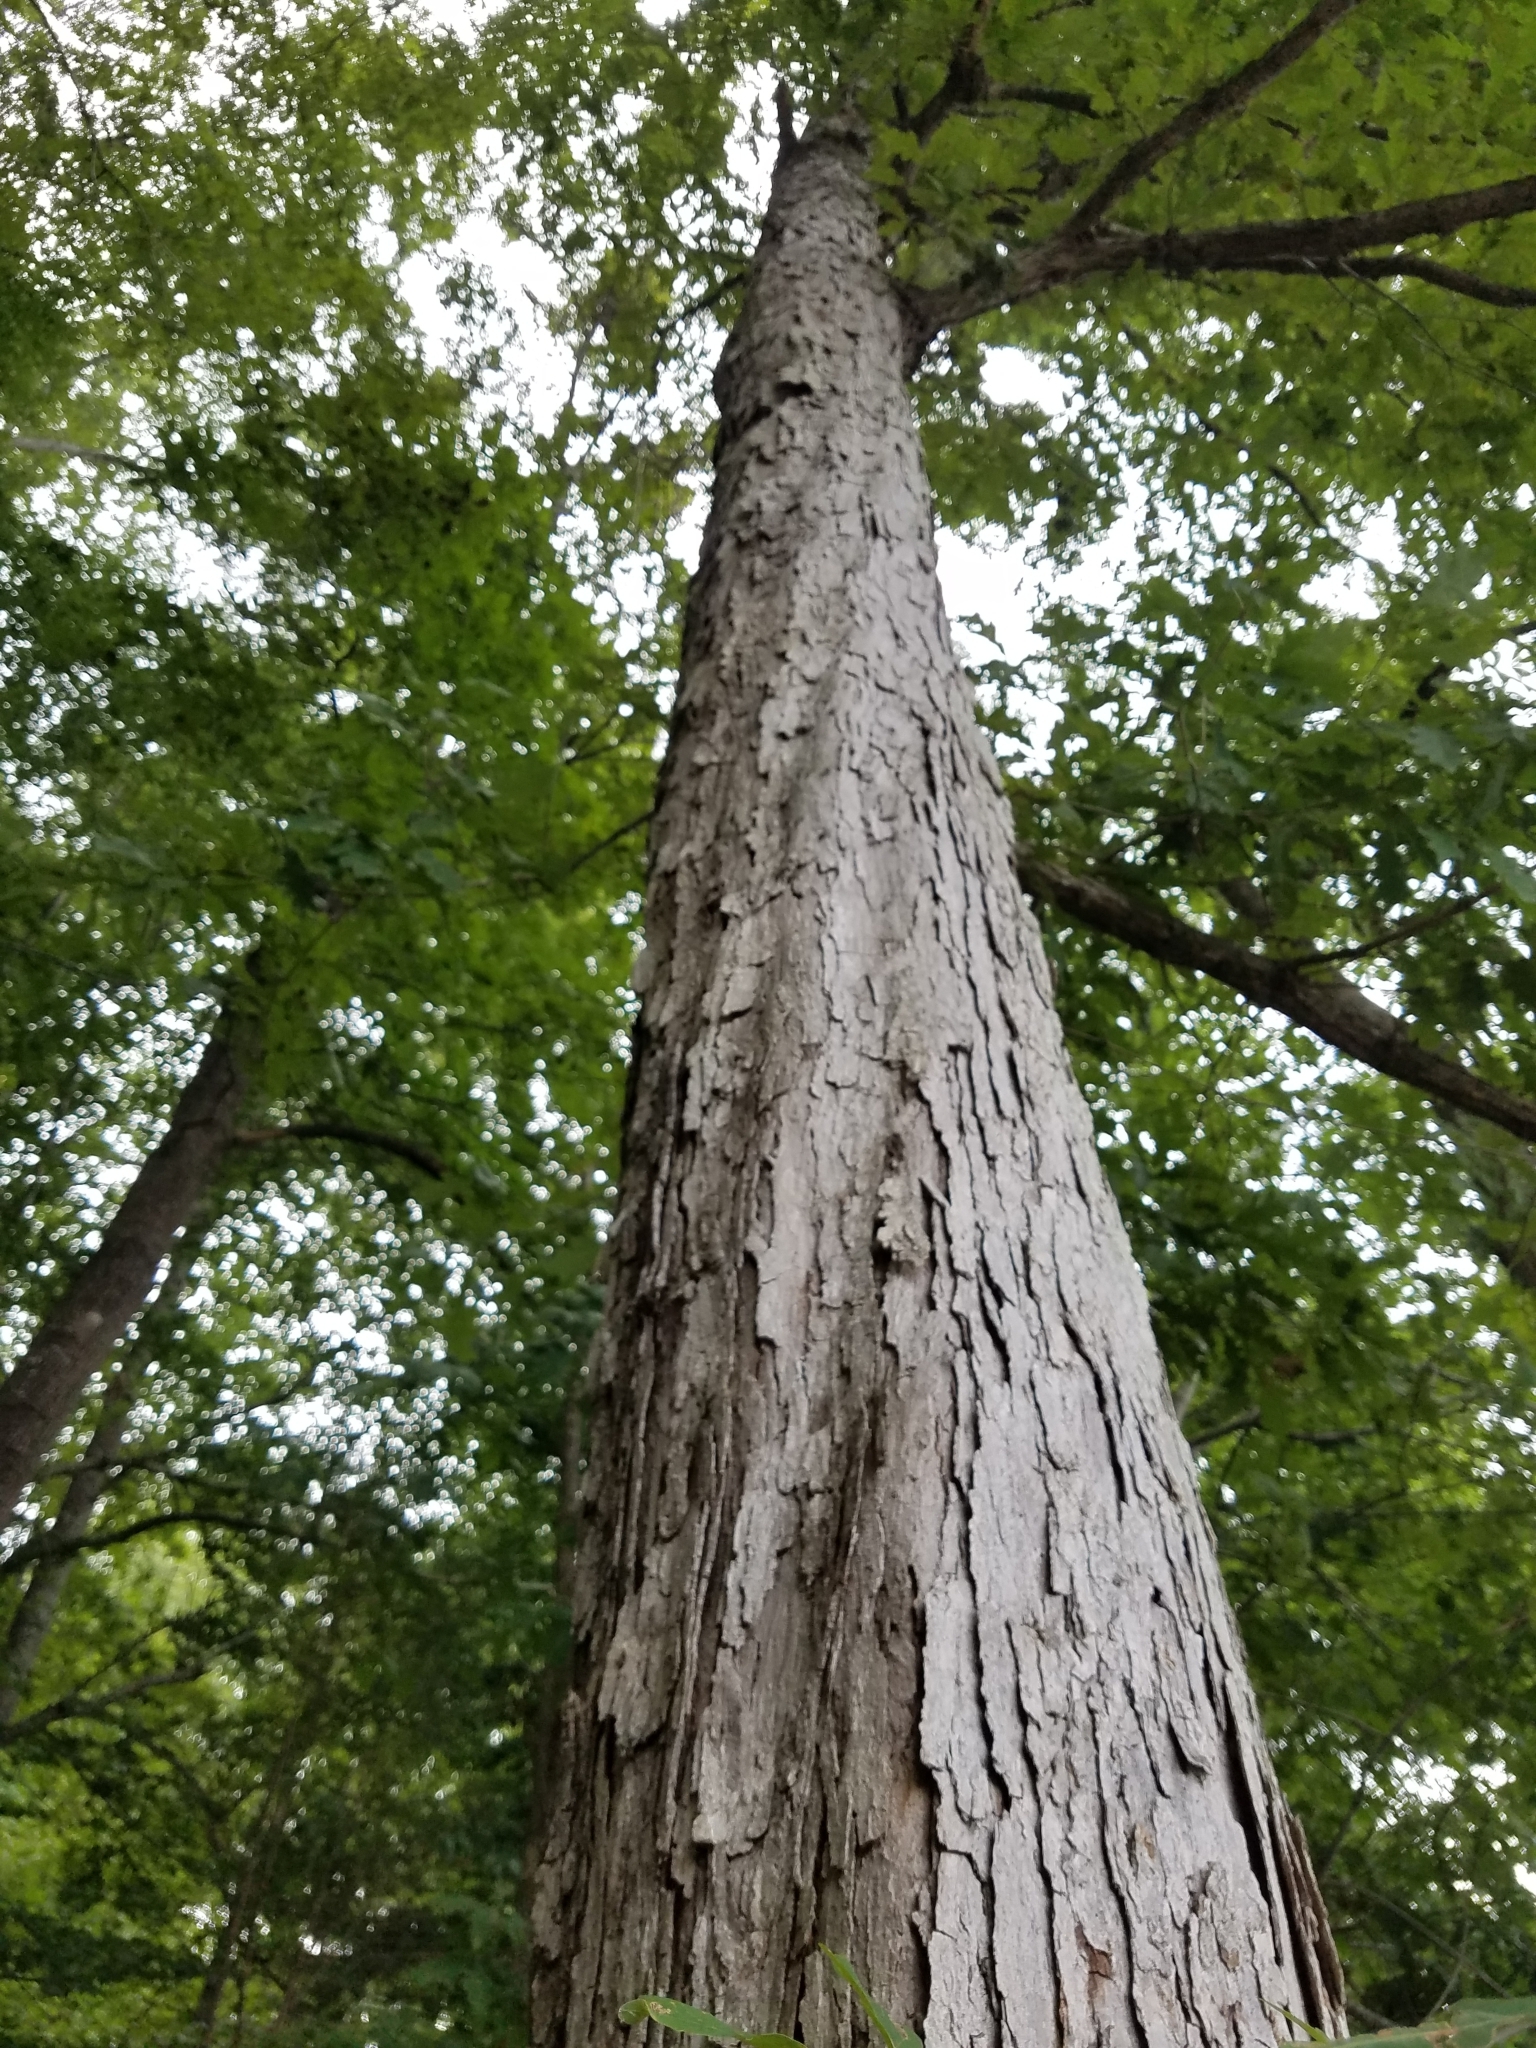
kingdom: Plantae
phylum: Tracheophyta
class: Magnoliopsida
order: Fagales
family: Fagaceae
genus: Quercus
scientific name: Quercus alba
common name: White oak
